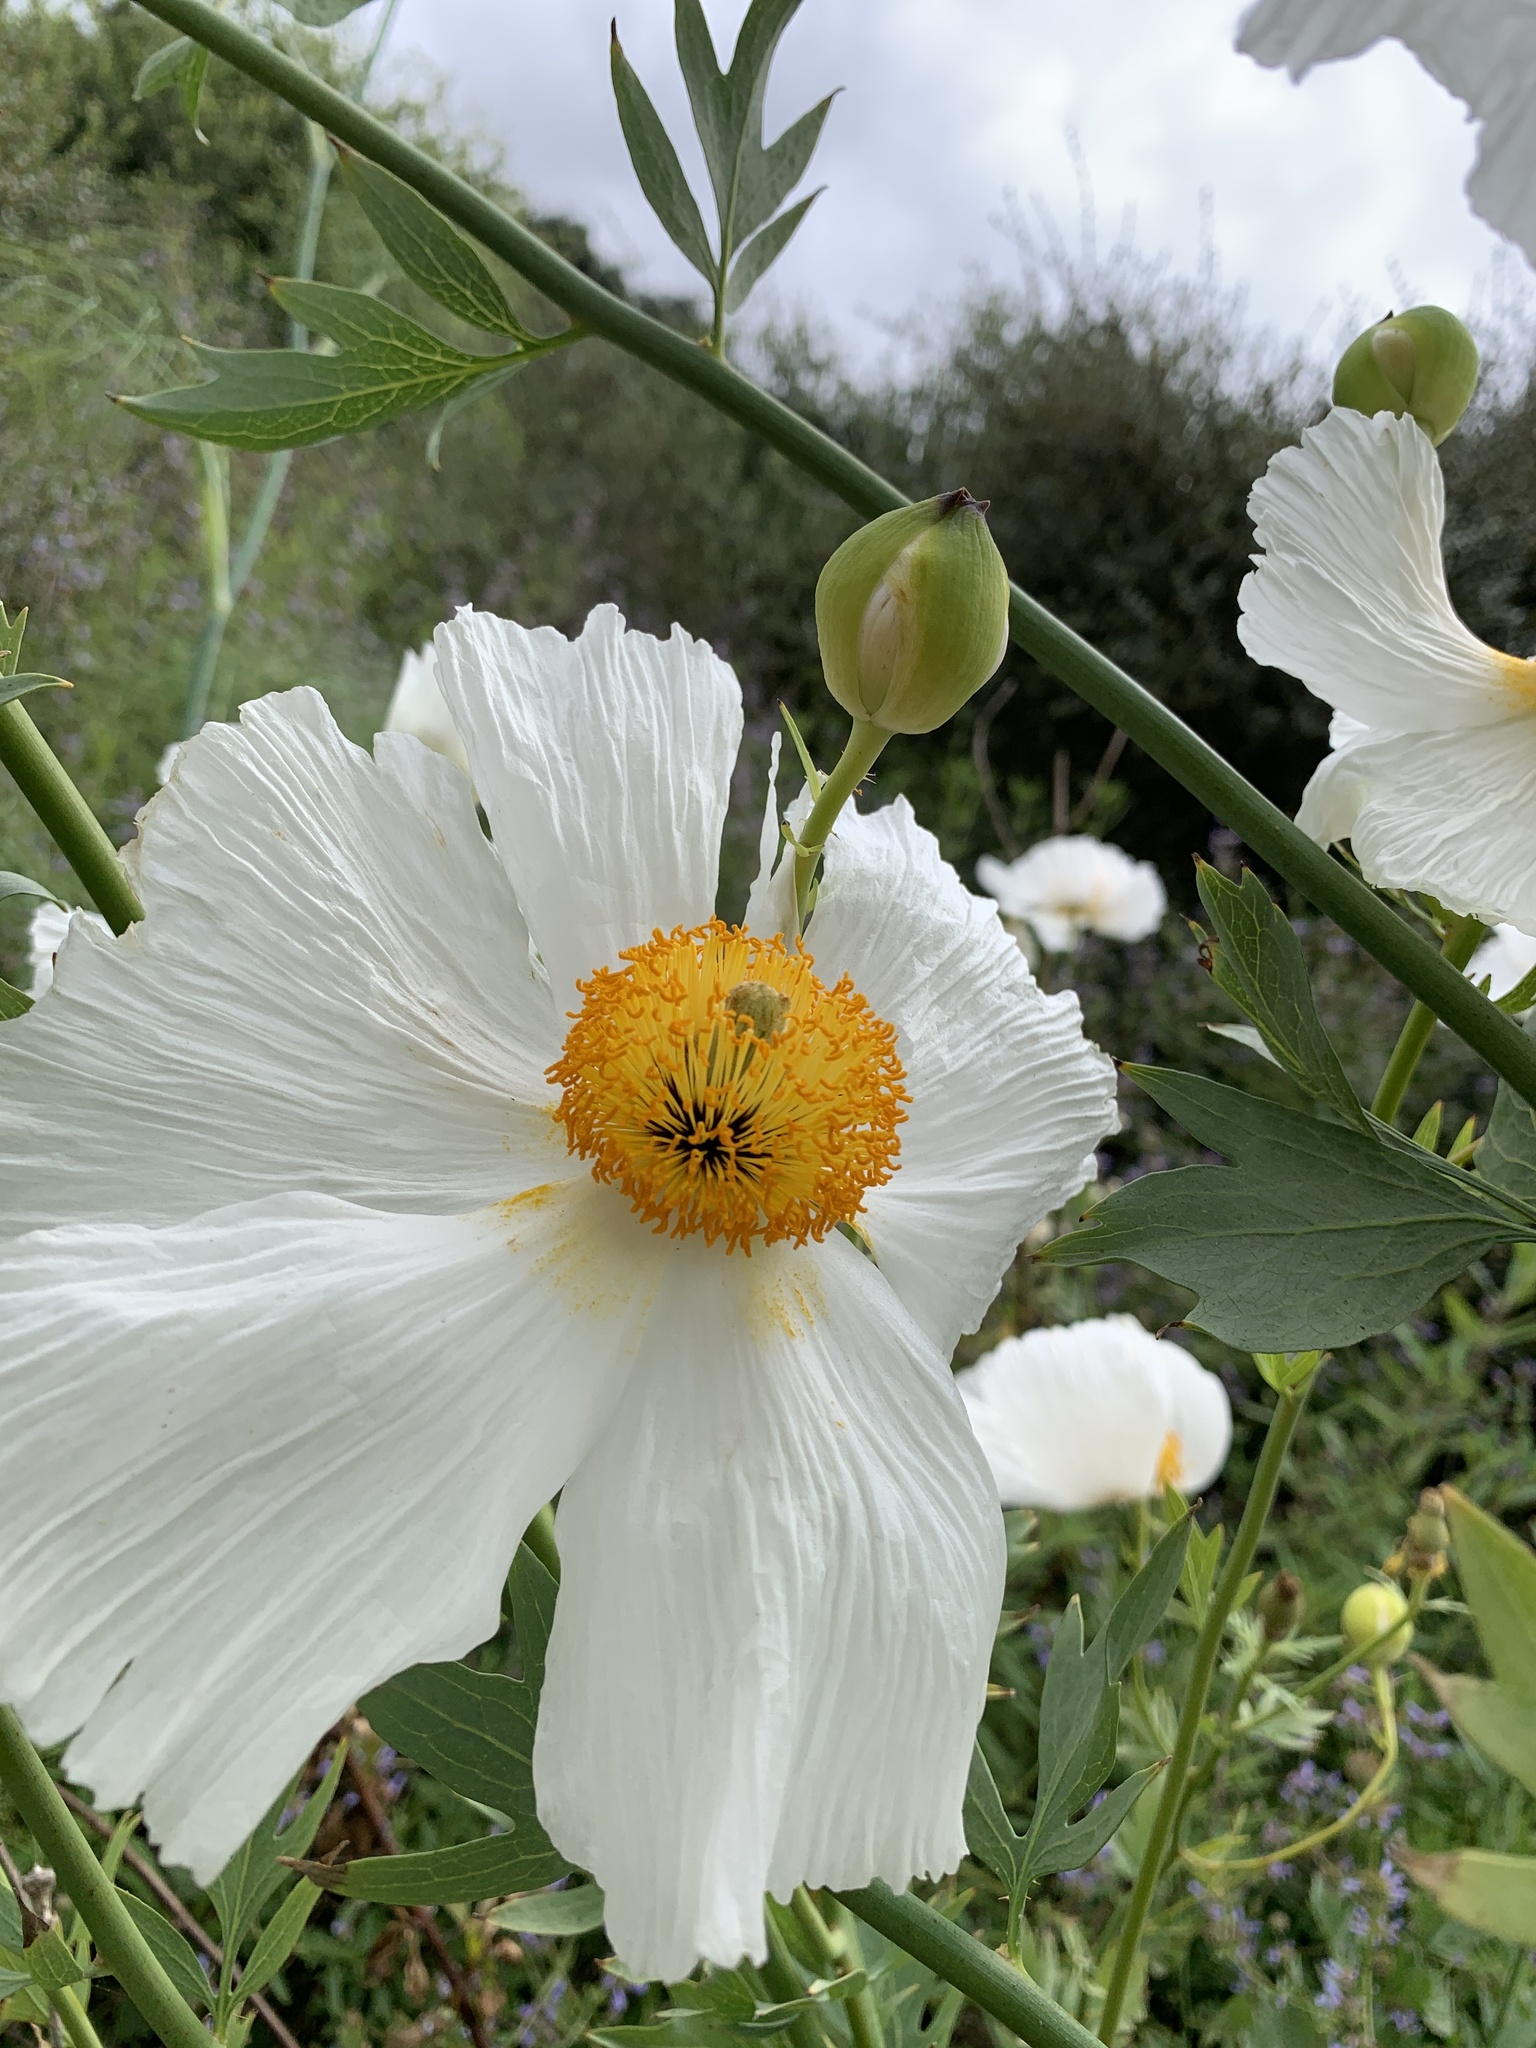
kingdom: Plantae
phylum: Tracheophyta
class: Magnoliopsida
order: Ranunculales
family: Papaveraceae
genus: Romneya
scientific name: Romneya coulteri
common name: California tree-poppy
